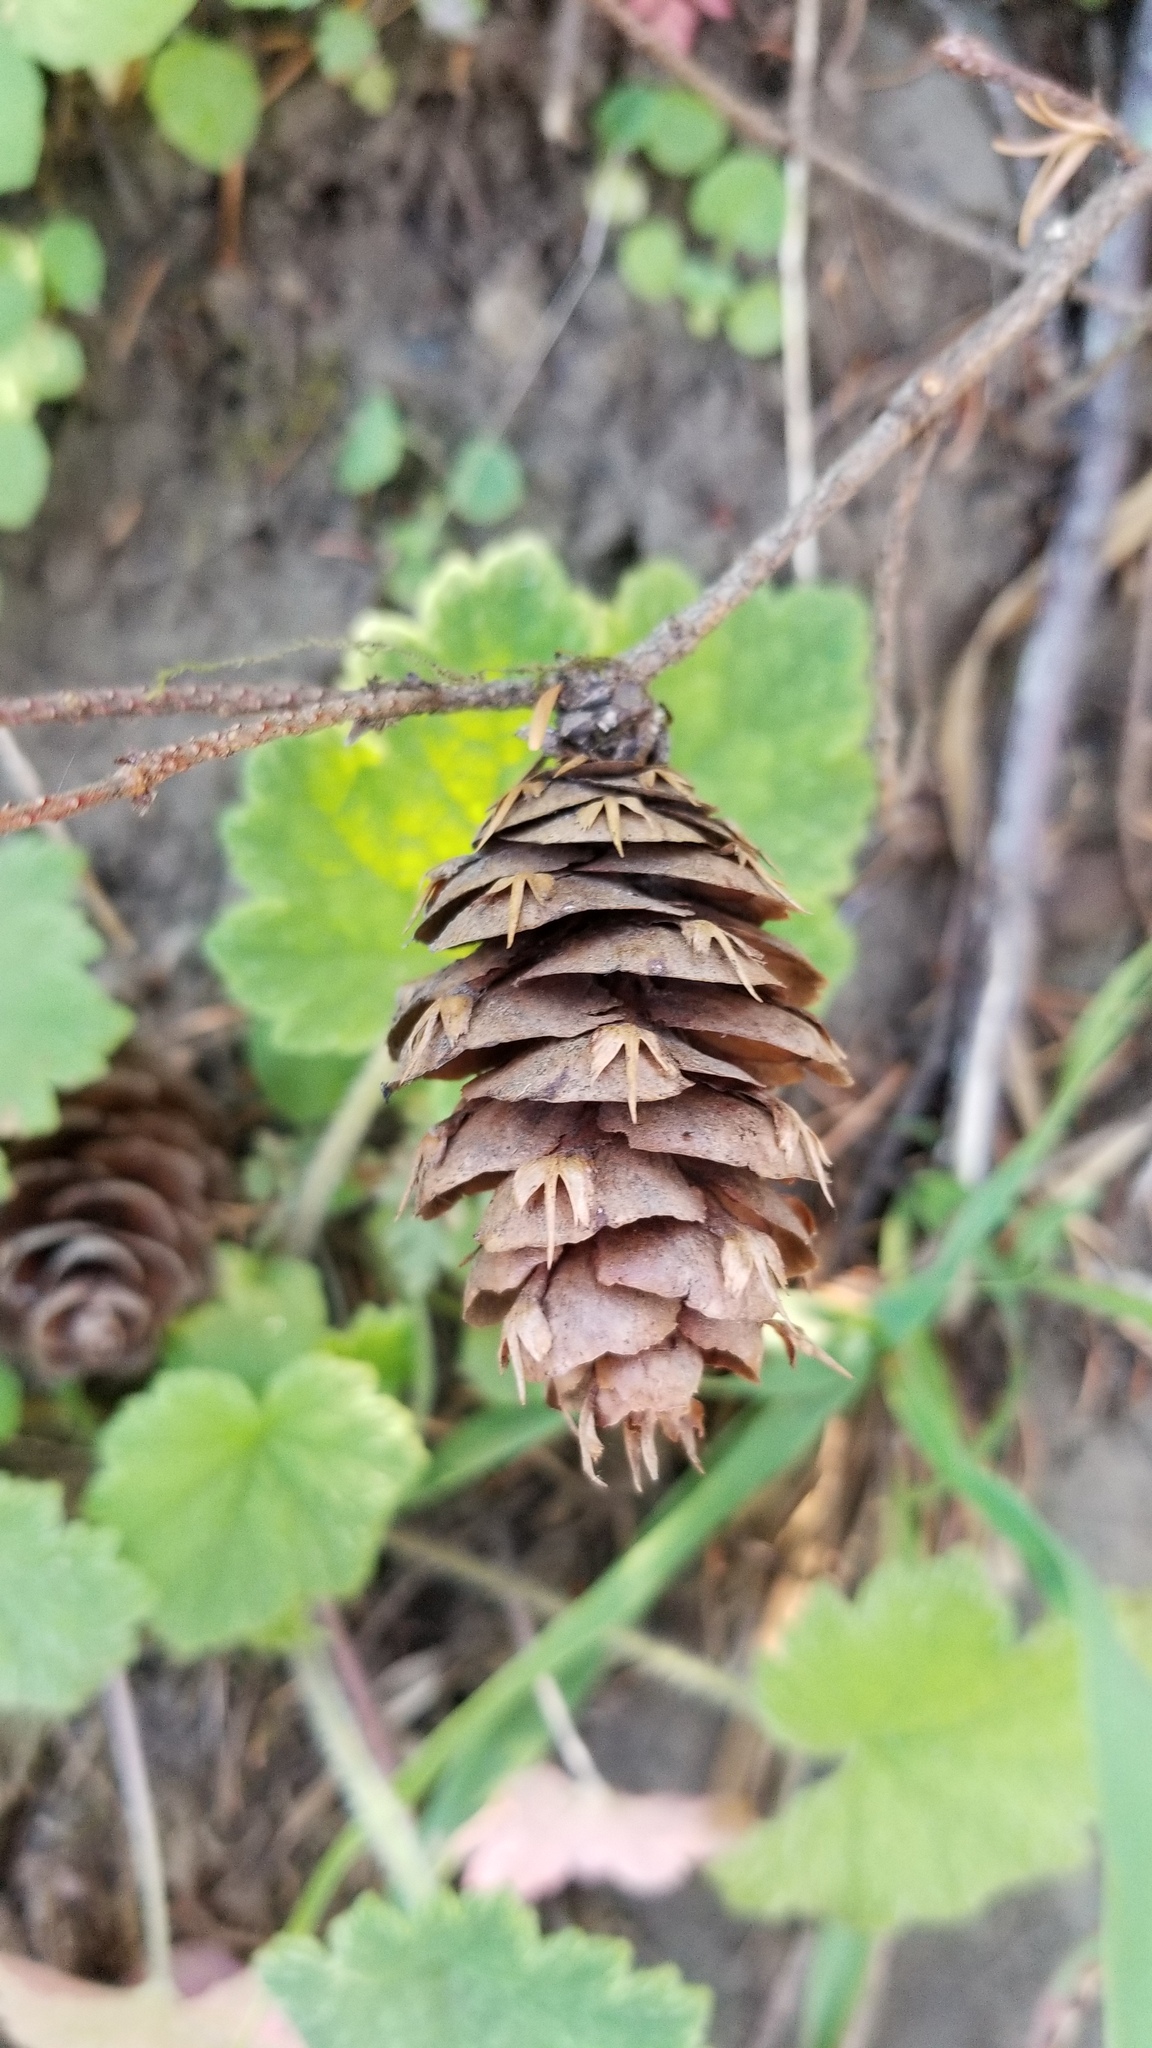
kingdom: Plantae
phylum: Tracheophyta
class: Pinopsida
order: Pinales
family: Pinaceae
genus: Pseudotsuga
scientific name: Pseudotsuga menziesii
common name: Douglas fir
